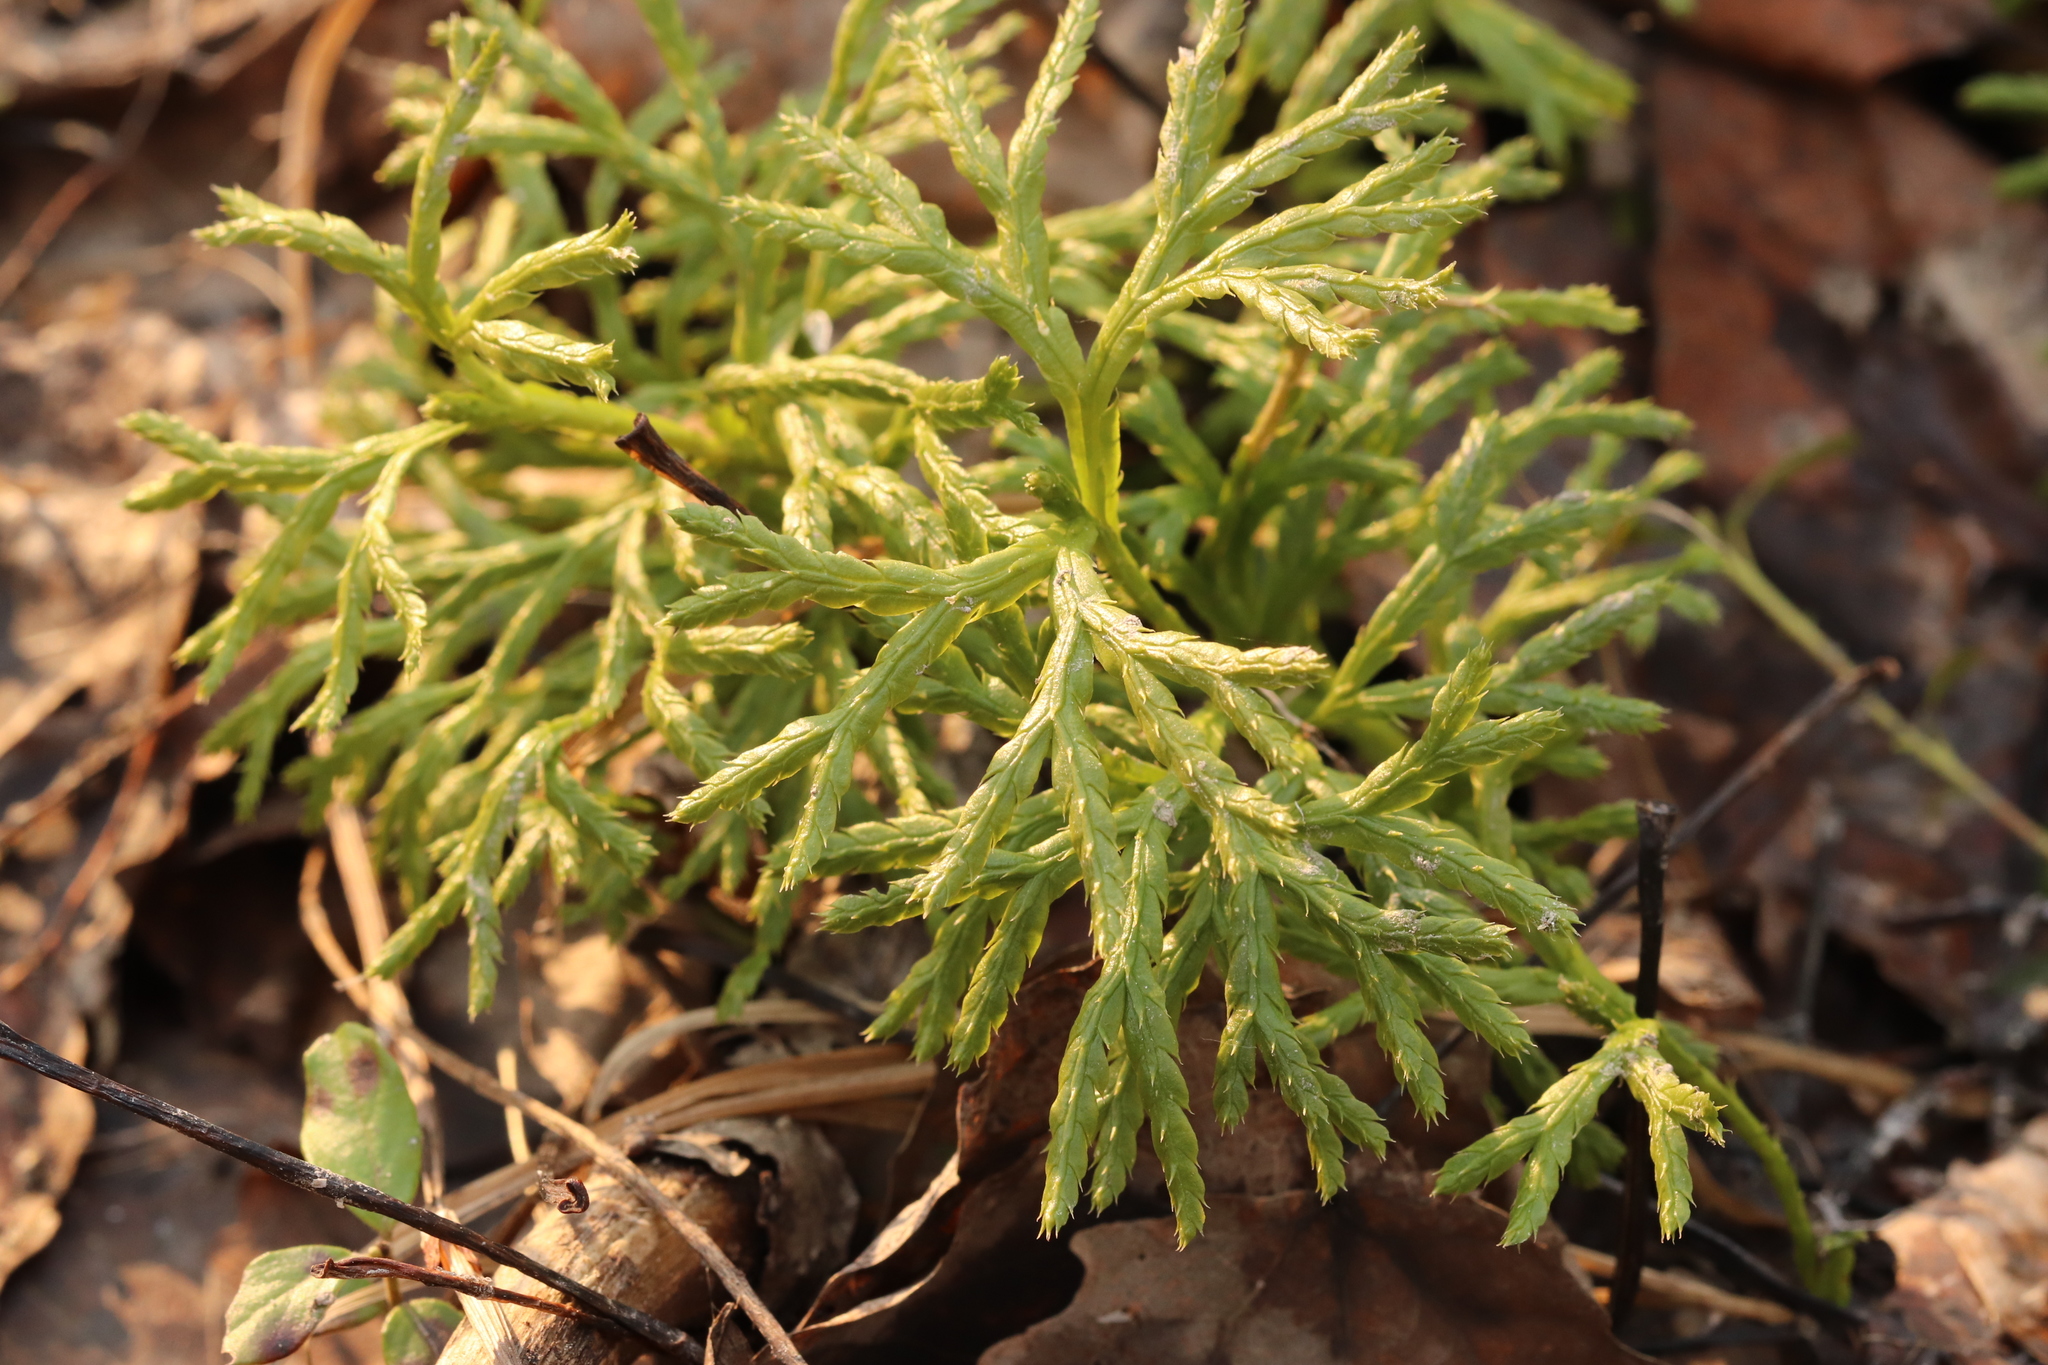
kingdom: Plantae
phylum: Tracheophyta
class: Lycopodiopsida
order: Lycopodiales
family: Lycopodiaceae
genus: Diphasiastrum
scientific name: Diphasiastrum complanatum
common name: Northern running-pine
